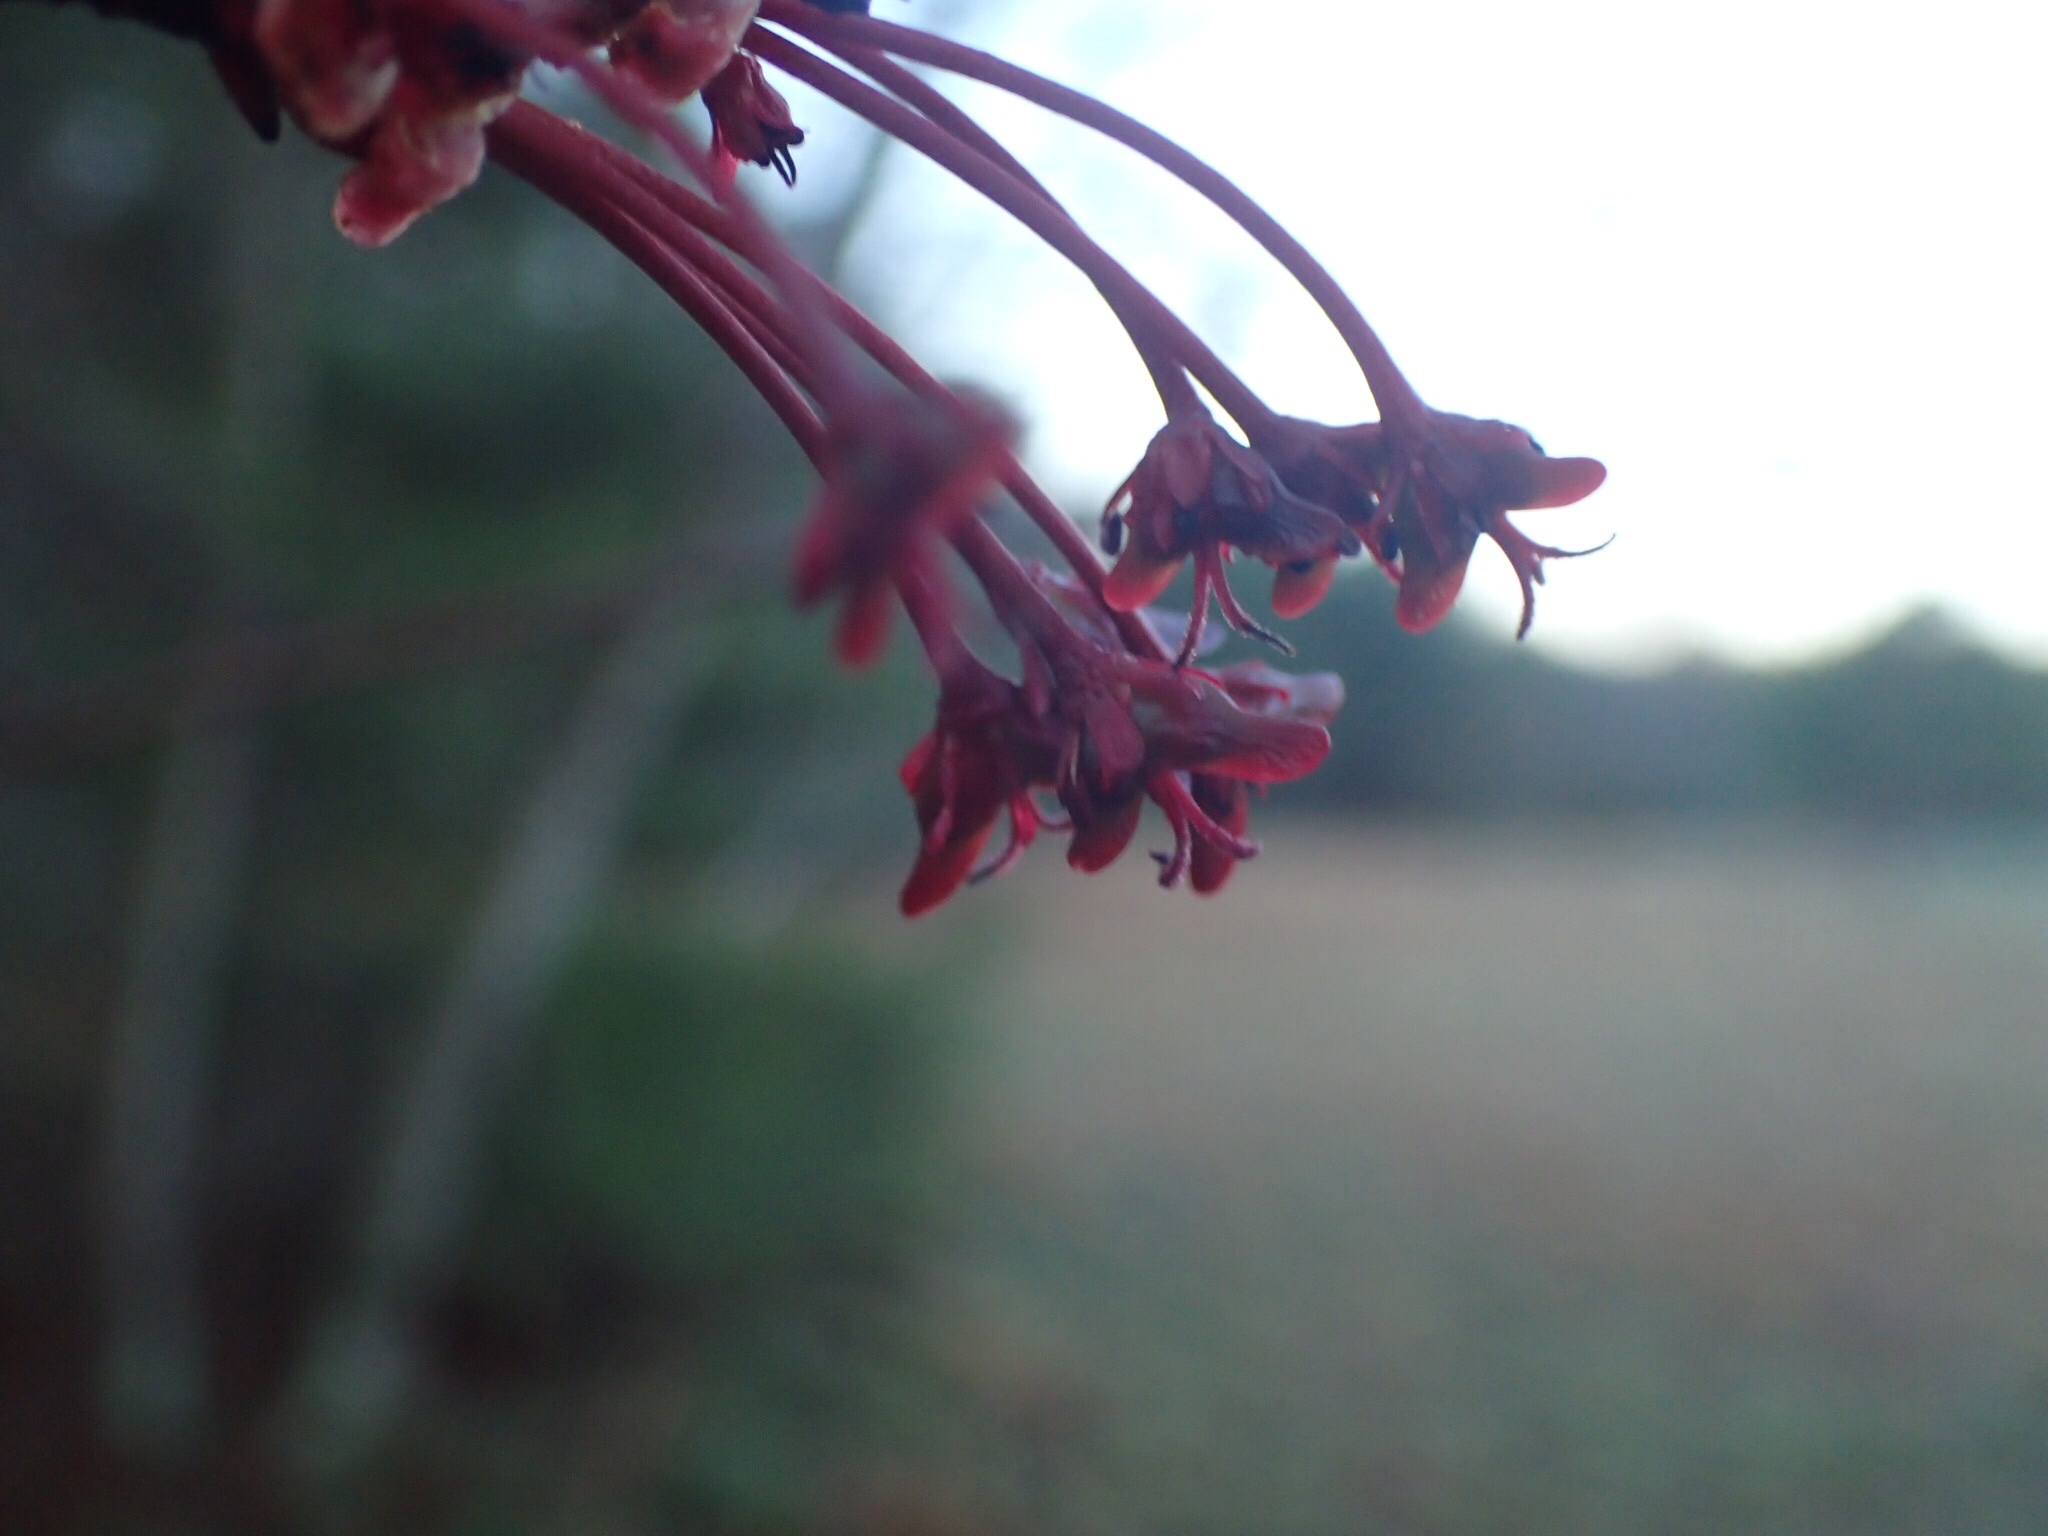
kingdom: Plantae
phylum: Tracheophyta
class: Magnoliopsida
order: Sapindales
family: Sapindaceae
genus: Acer
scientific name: Acer rubrum
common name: Red maple
